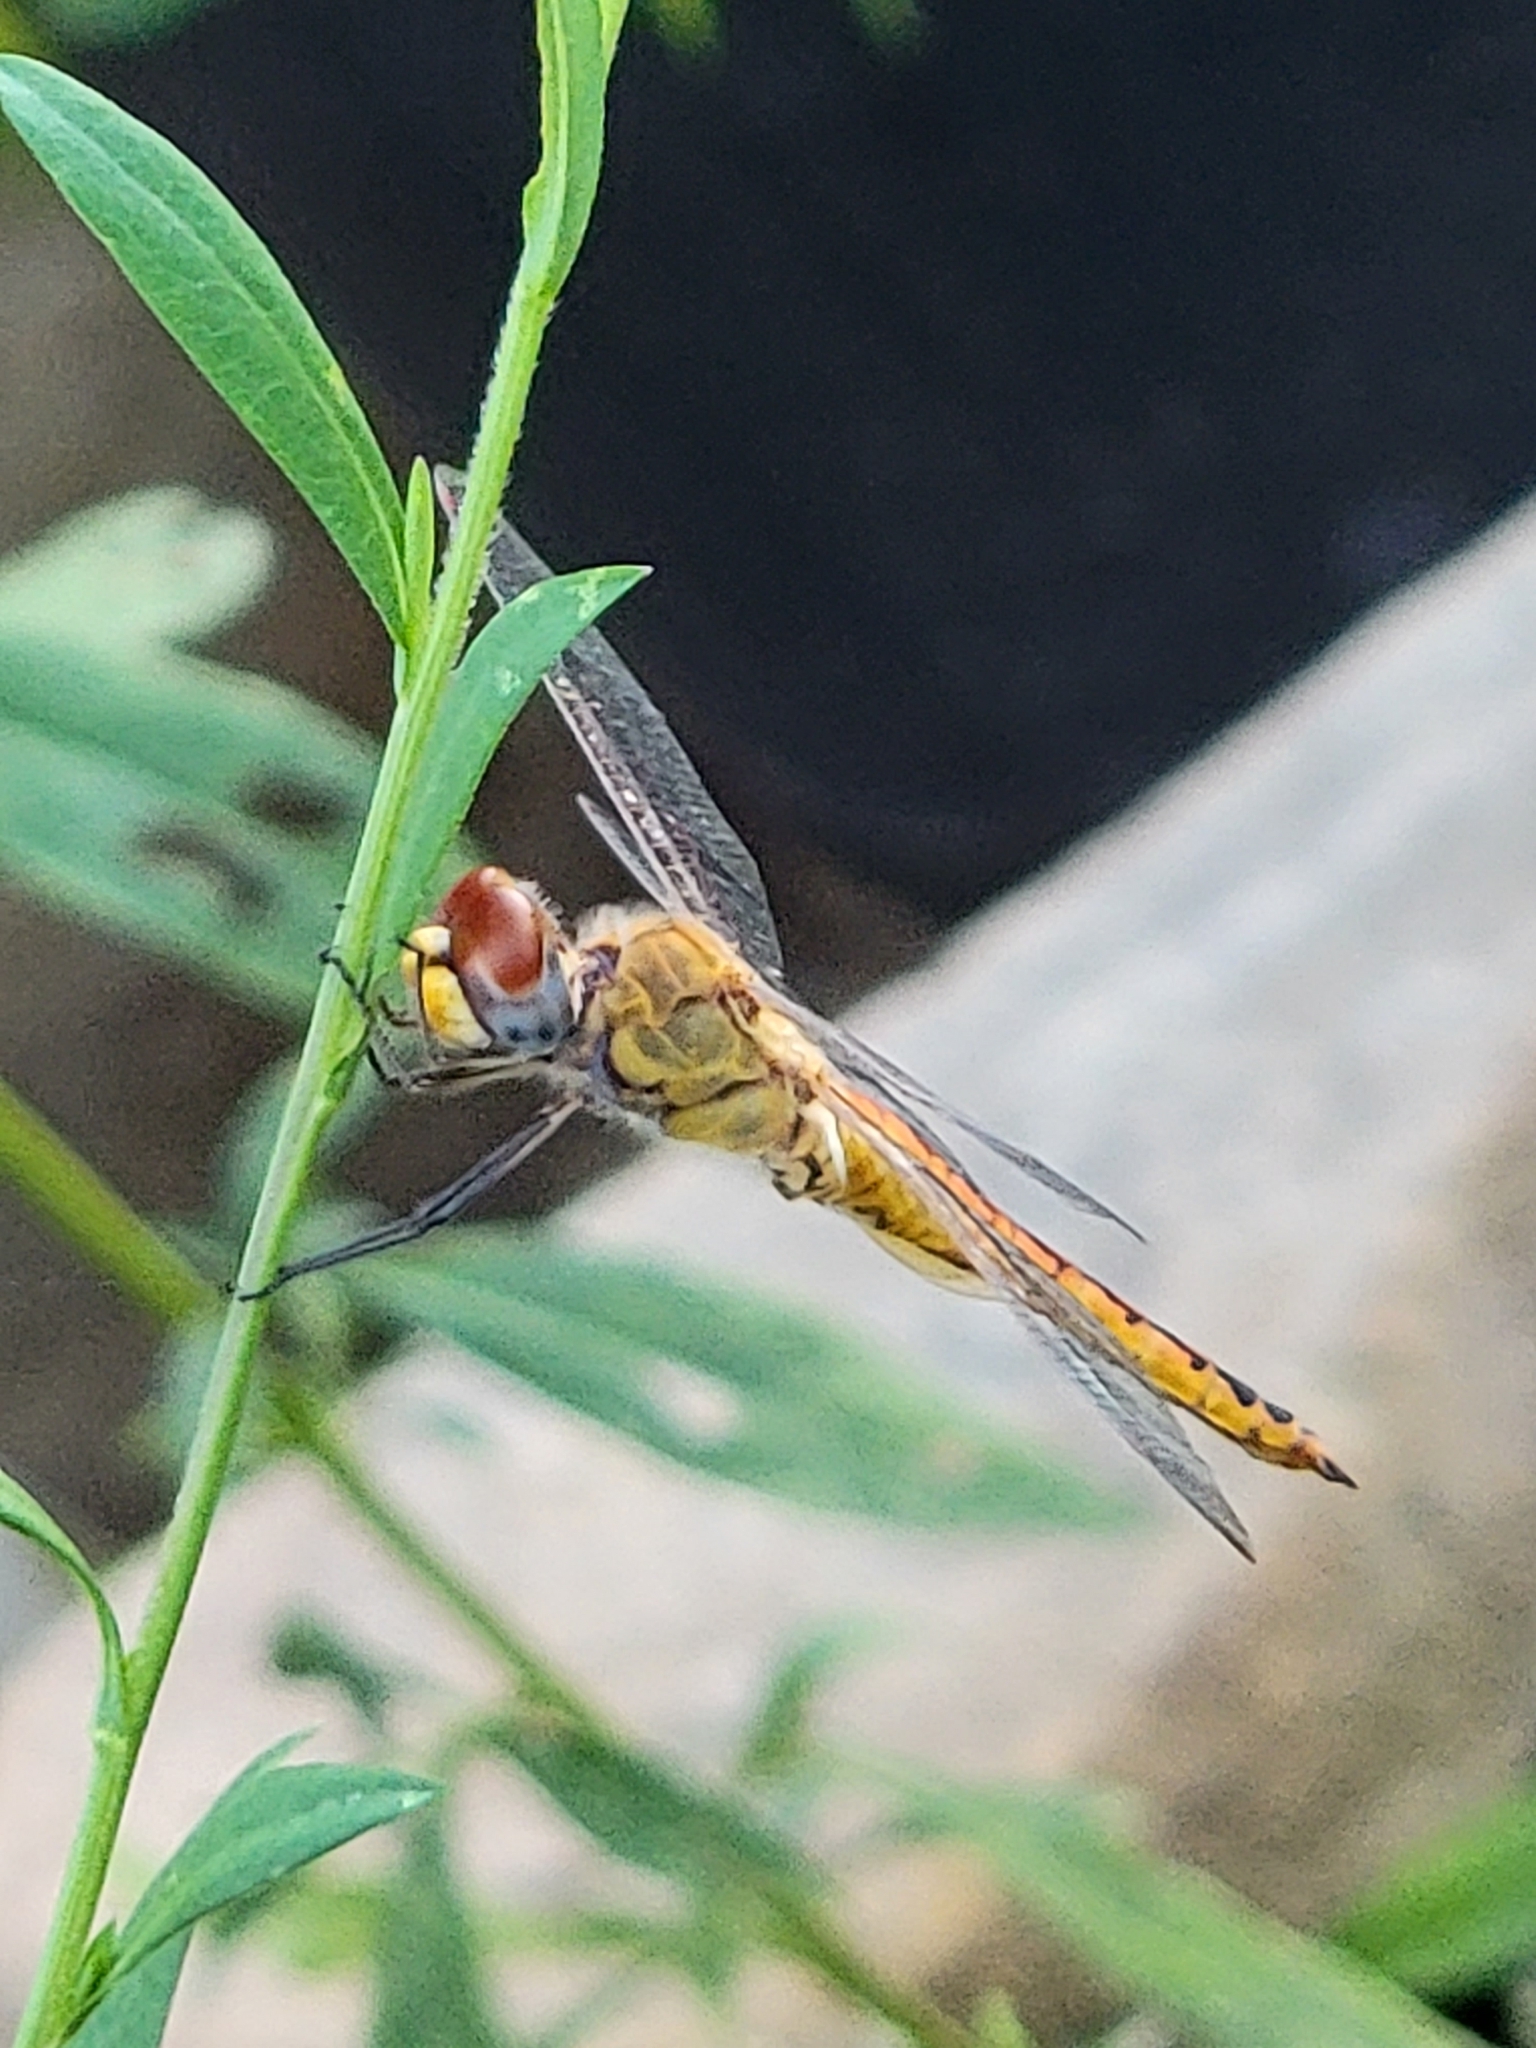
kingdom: Animalia
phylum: Arthropoda
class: Insecta
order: Odonata
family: Libellulidae
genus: Pantala
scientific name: Pantala flavescens
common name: Wandering glider
